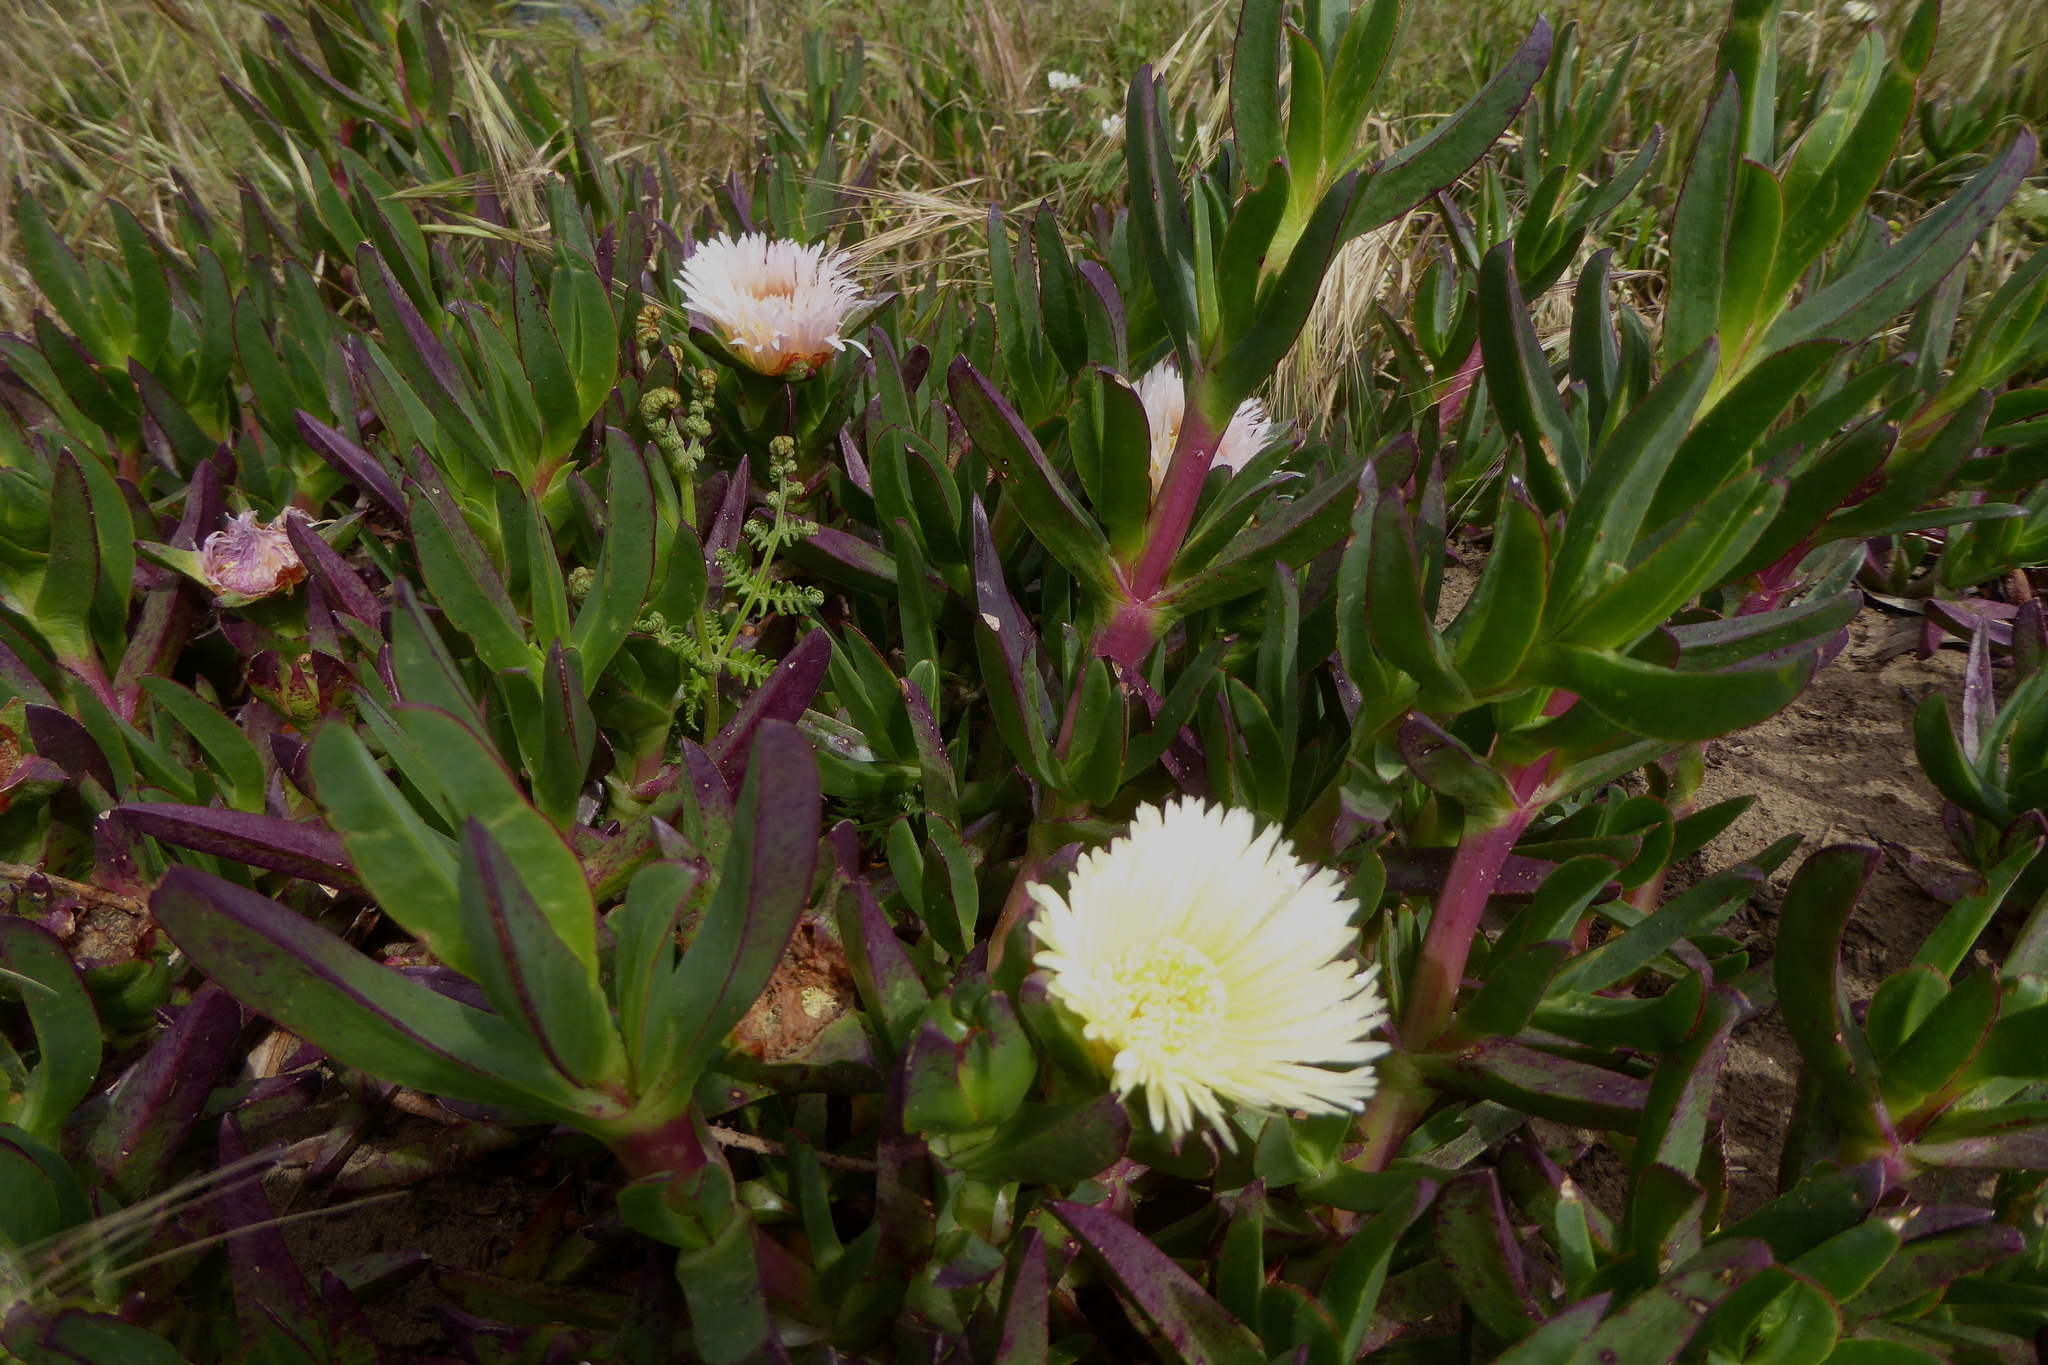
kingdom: Plantae
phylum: Tracheophyta
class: Magnoliopsida
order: Caryophyllales
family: Aizoaceae
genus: Carpobrotus
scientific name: Carpobrotus edulis
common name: Hottentot-fig
